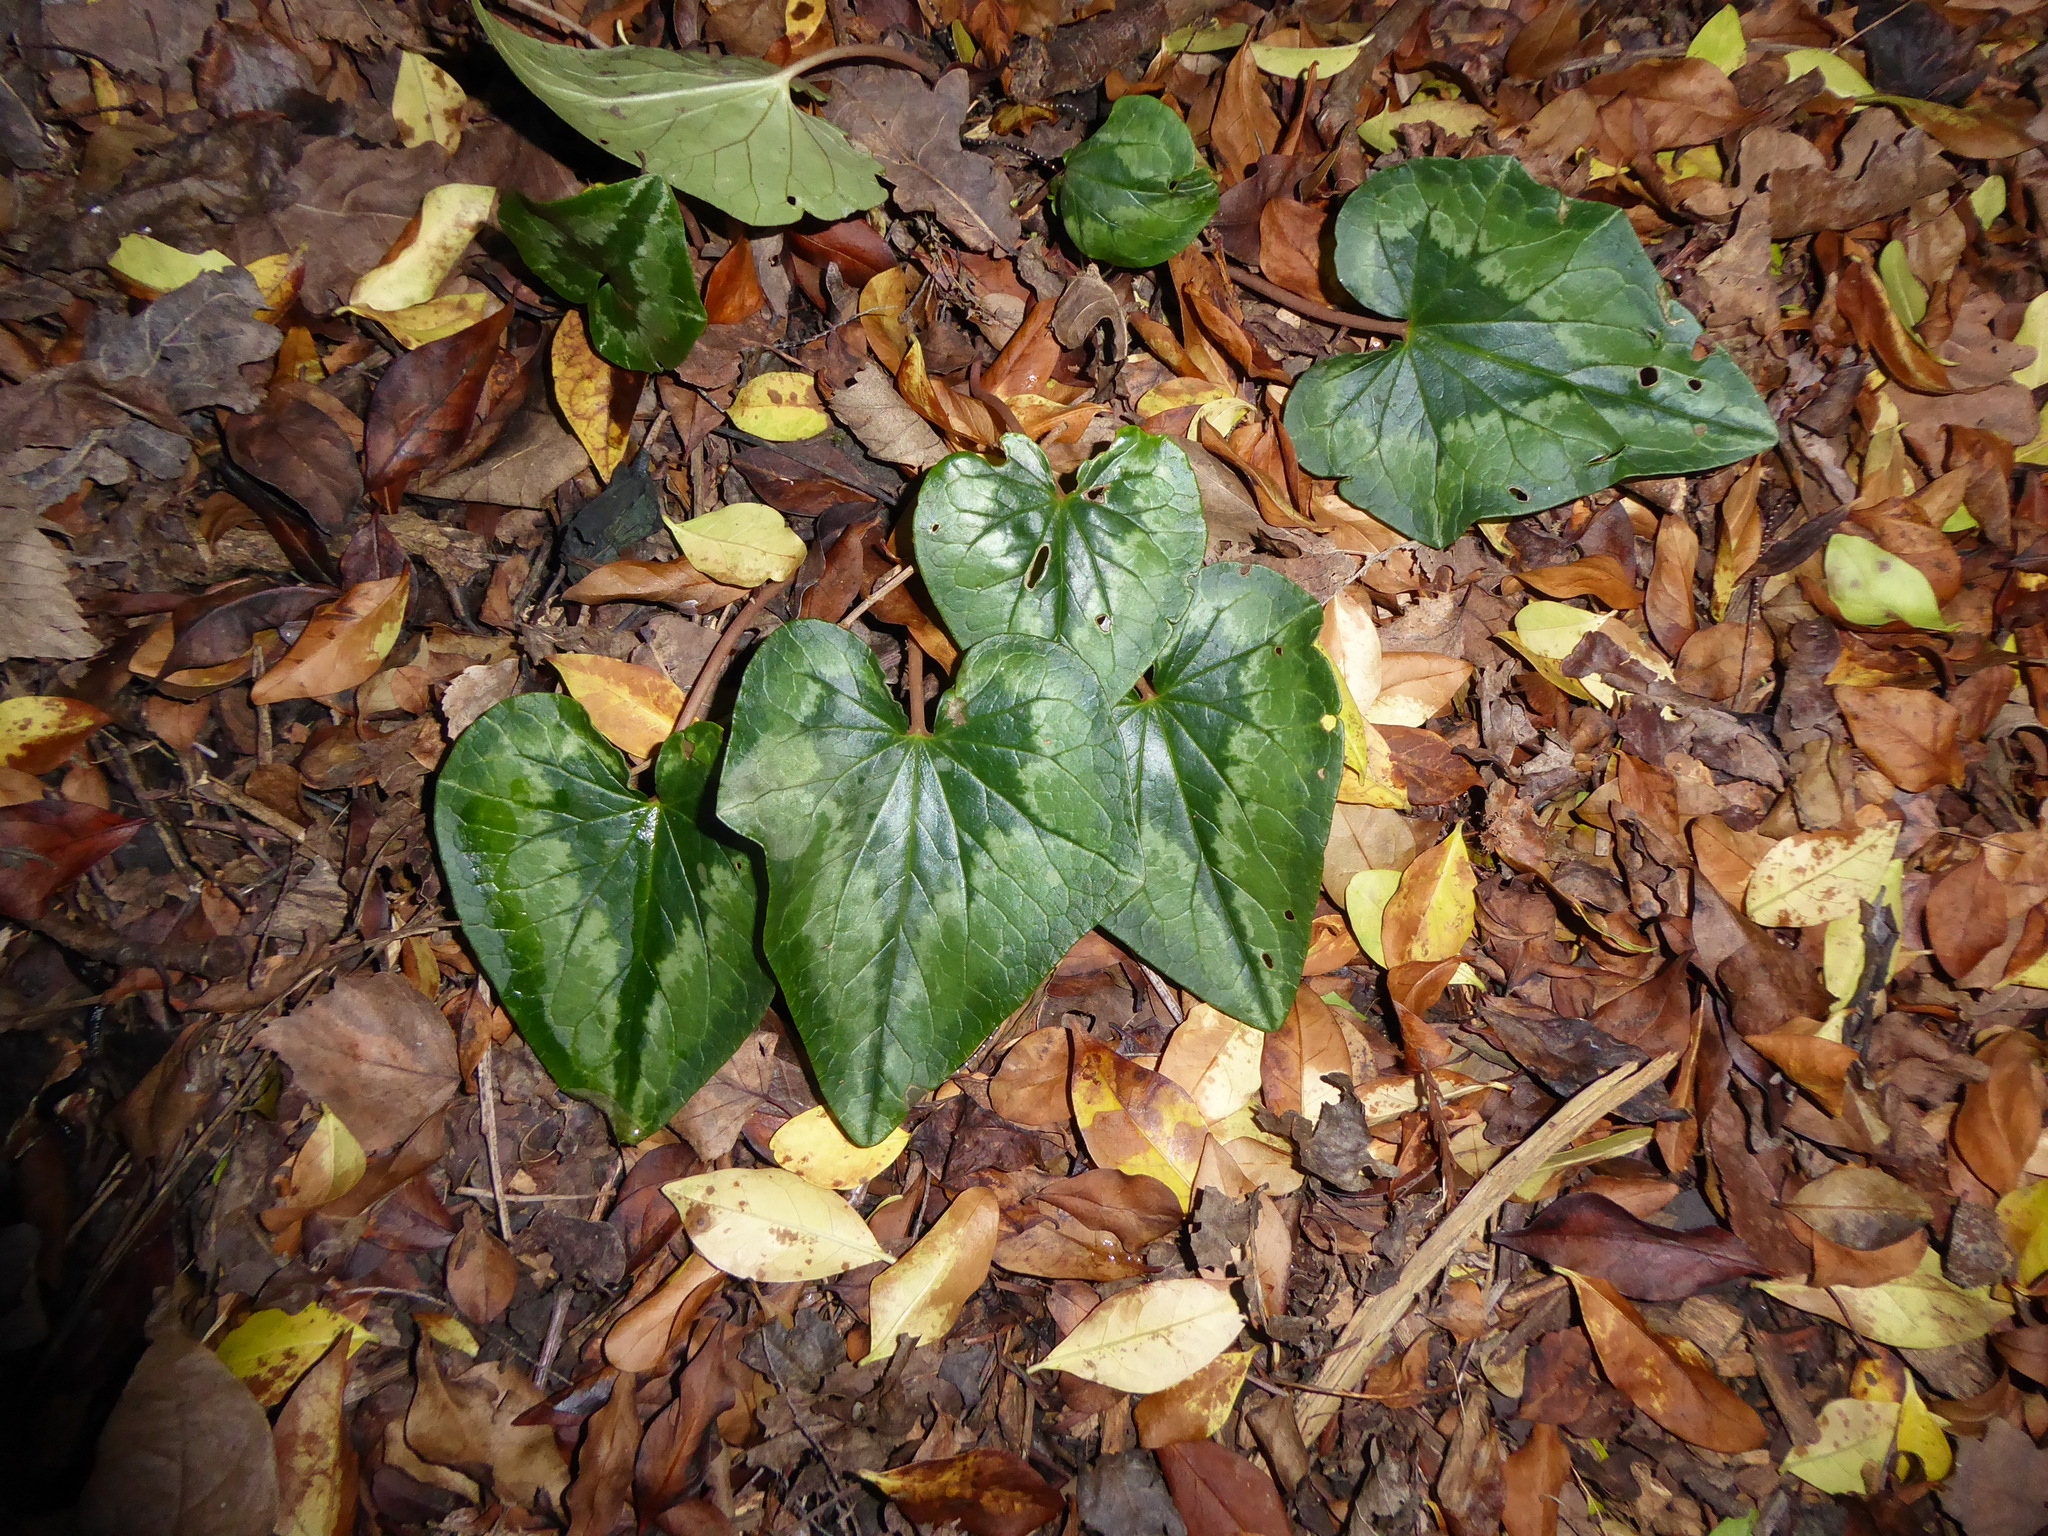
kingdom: Plantae
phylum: Tracheophyta
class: Magnoliopsida
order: Ericales
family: Primulaceae
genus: Cyclamen
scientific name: Cyclamen hederifolium
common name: Sowbread
